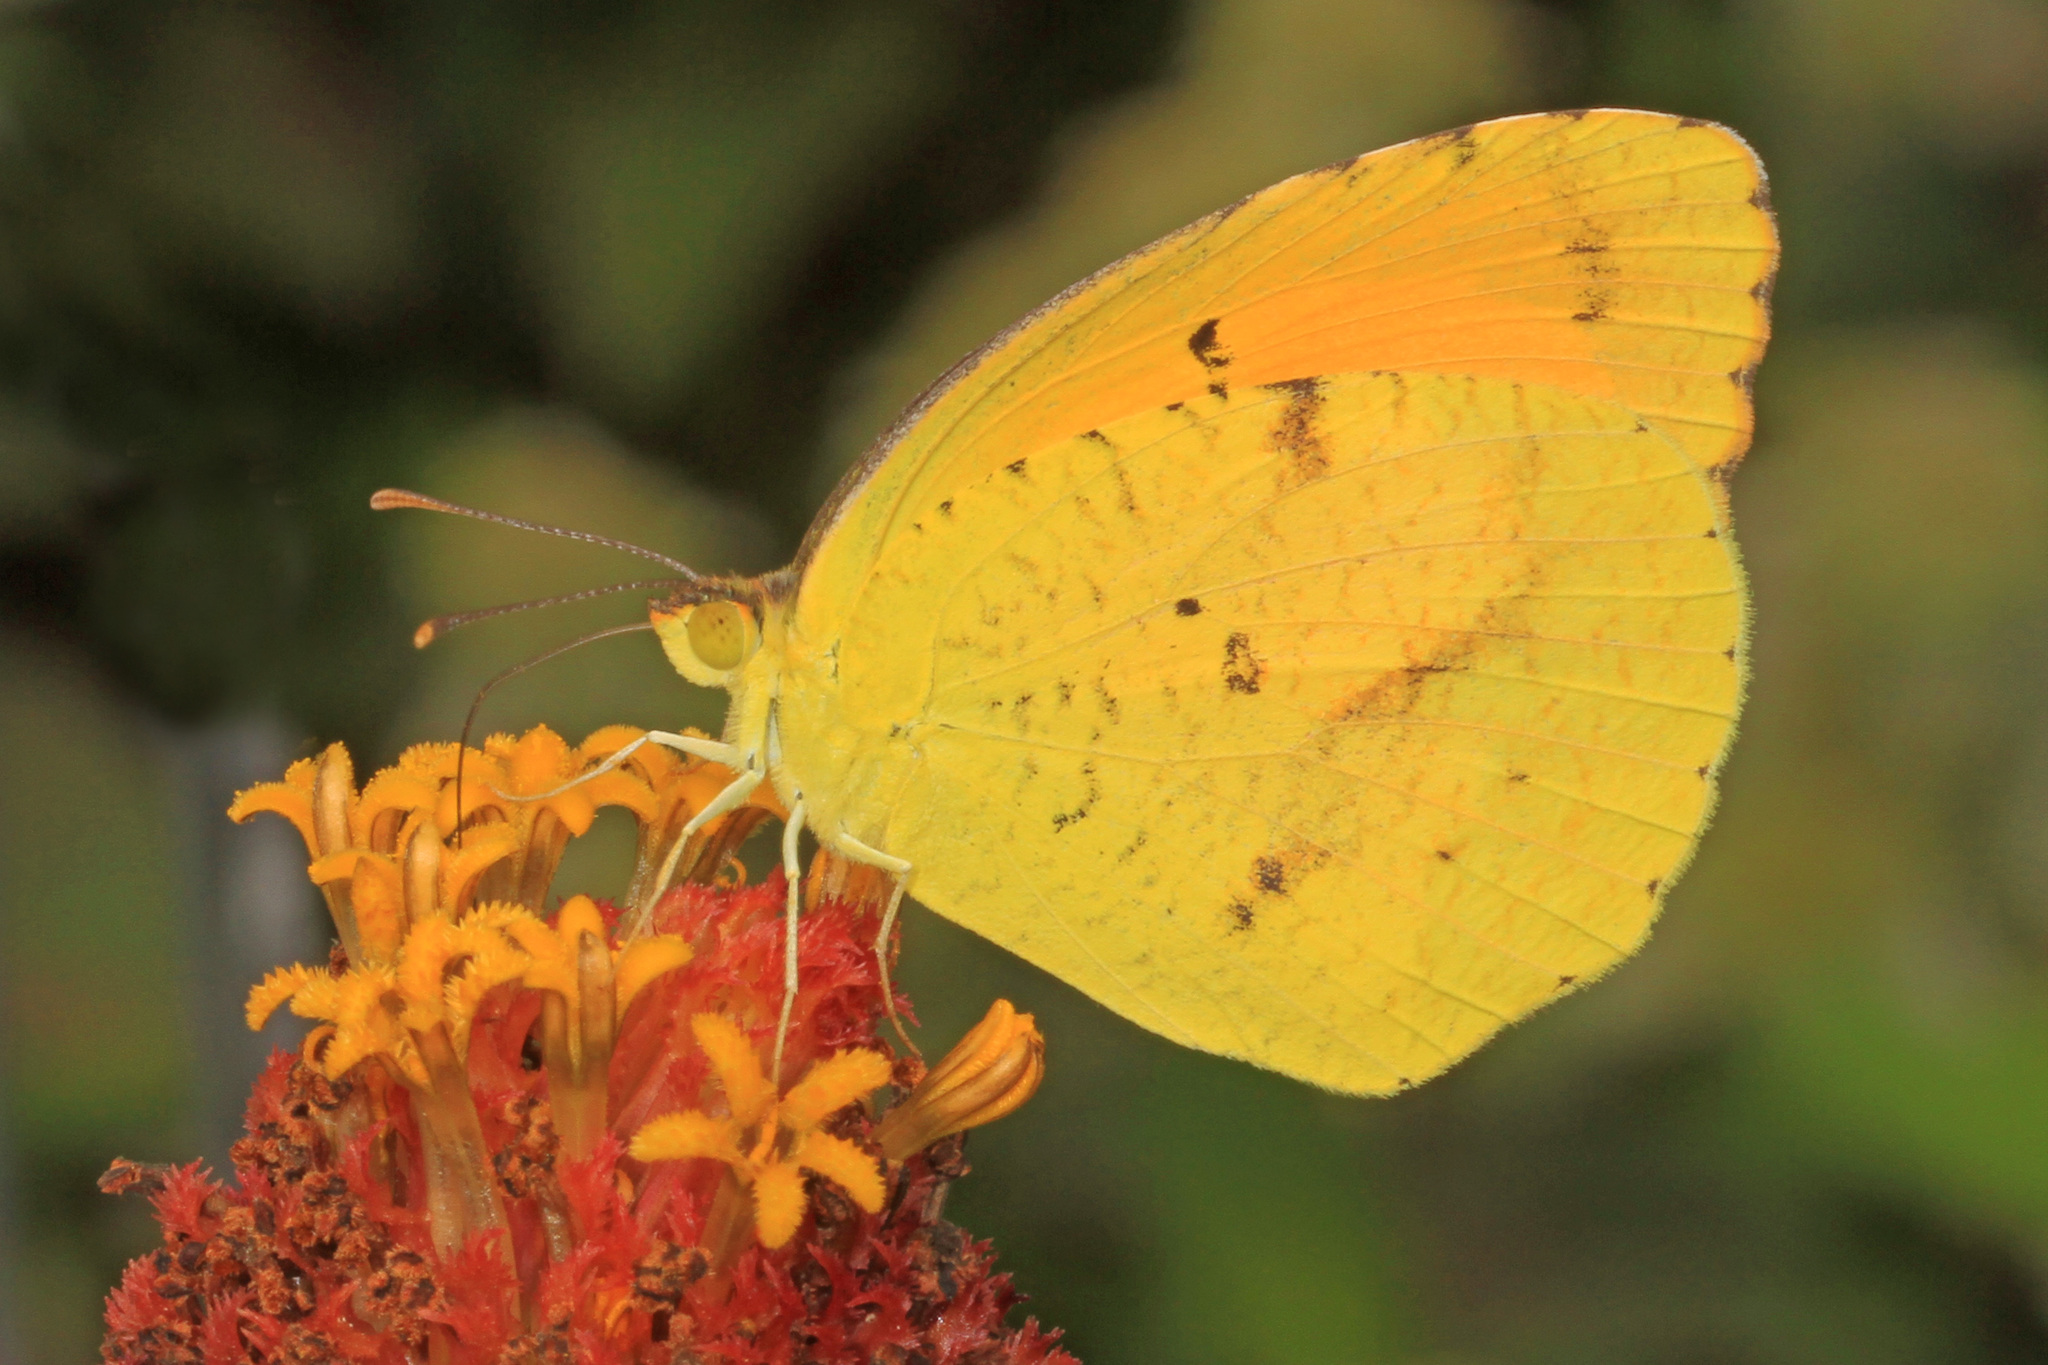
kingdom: Animalia
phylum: Arthropoda
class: Insecta
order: Lepidoptera
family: Pieridae
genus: Abaeis
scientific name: Abaeis nicippe
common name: Sleepy orange
